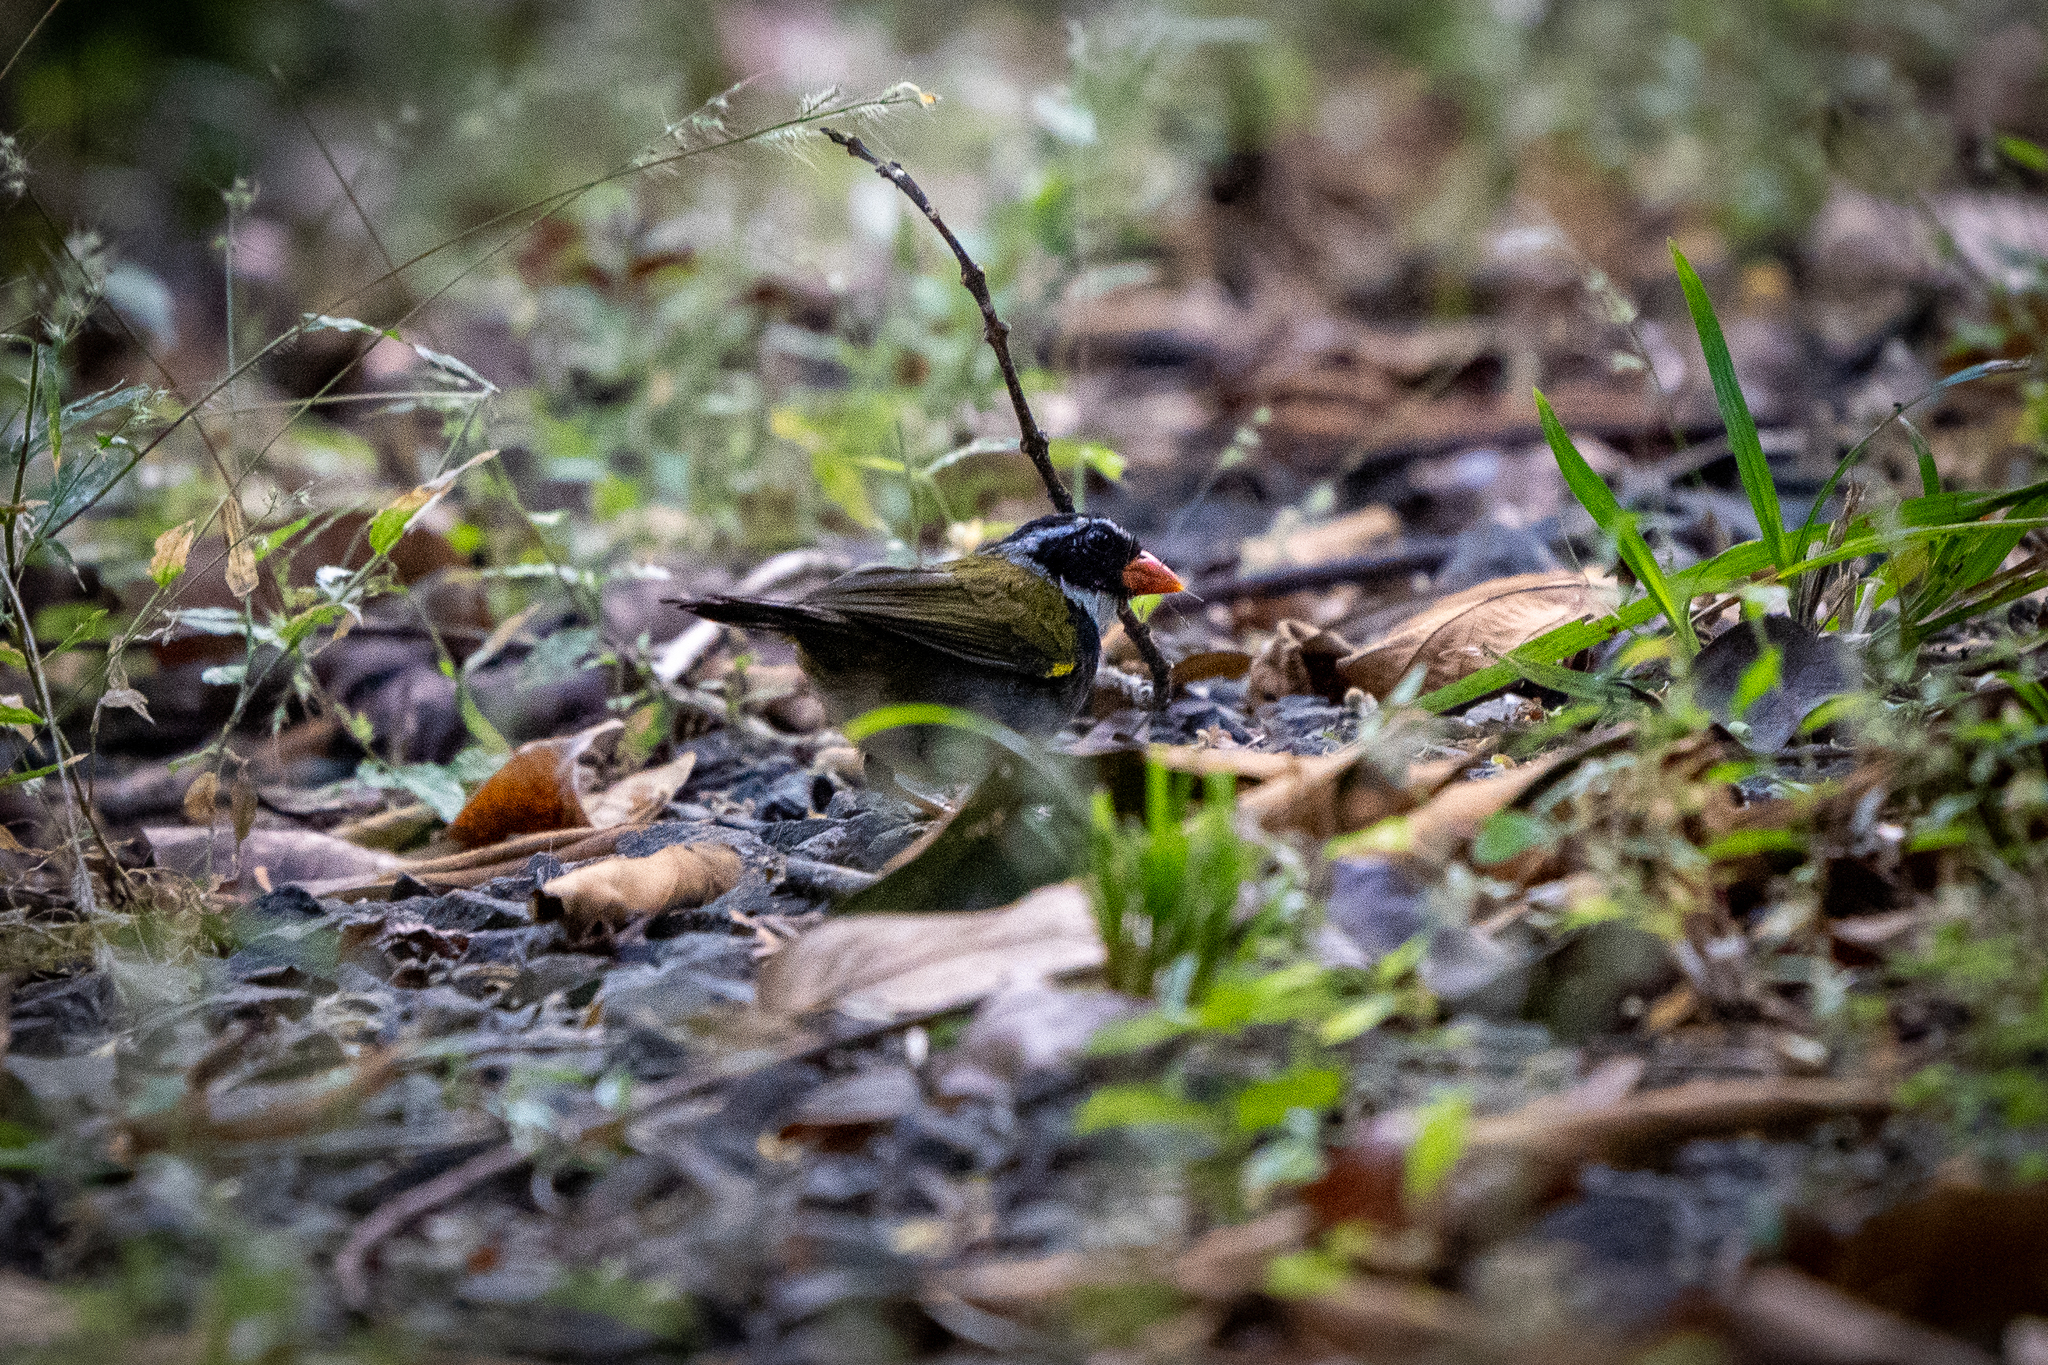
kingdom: Animalia
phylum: Chordata
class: Aves
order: Passeriformes
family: Passerellidae
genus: Arremon
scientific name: Arremon aurantiirostris
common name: Orange-billed sparrow
